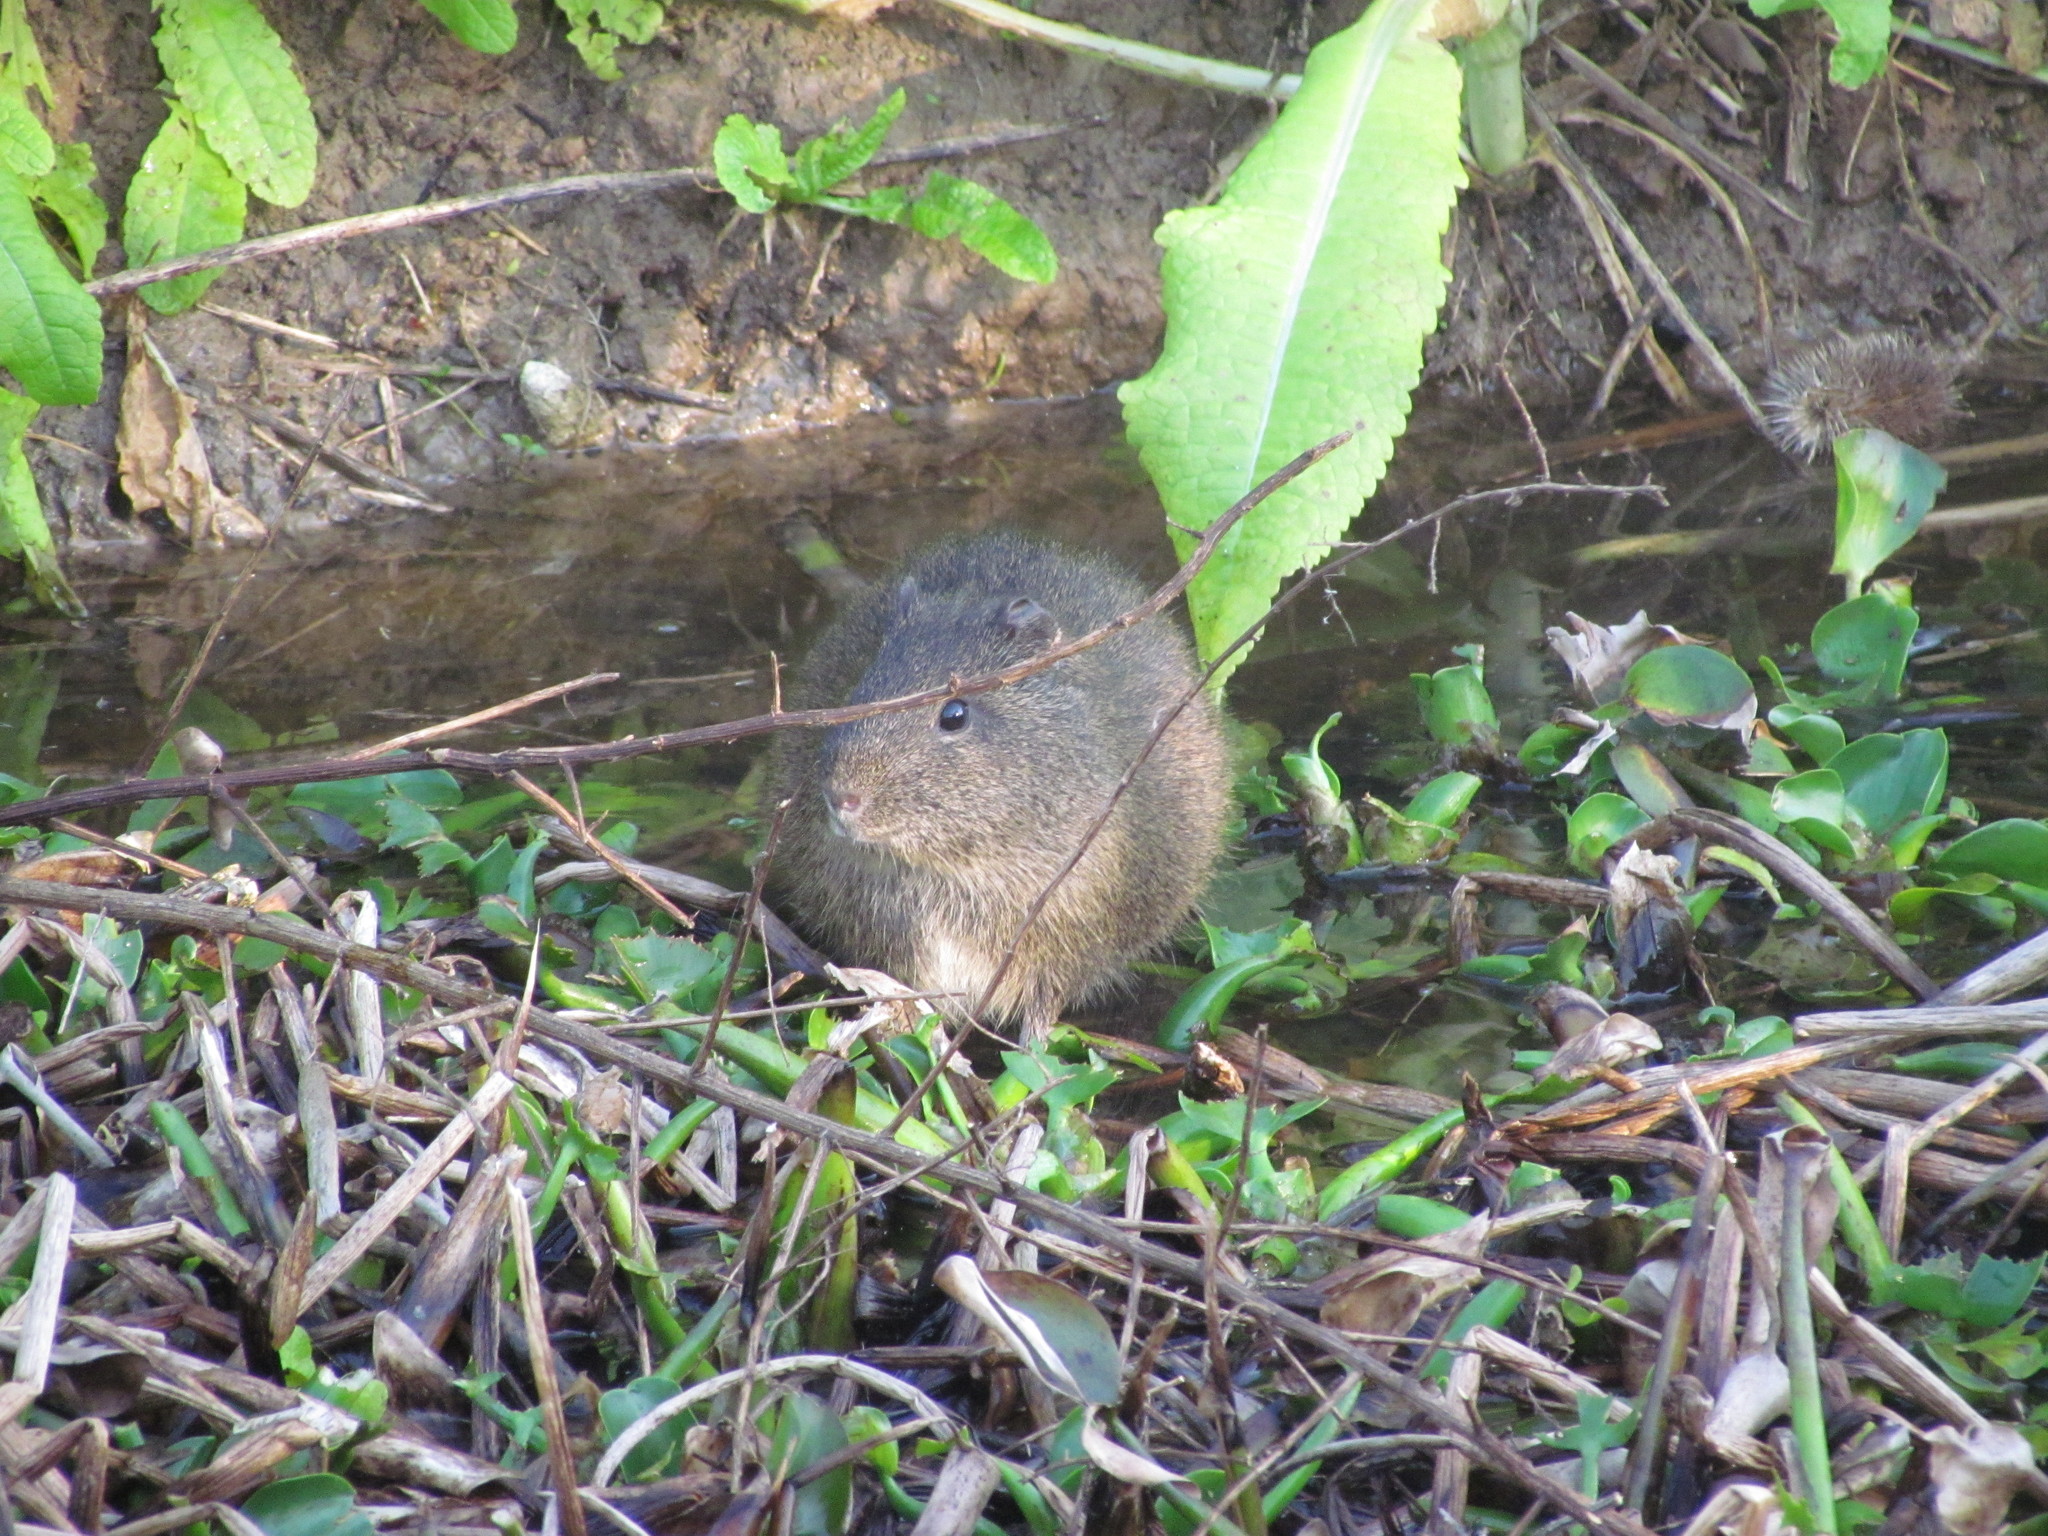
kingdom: Animalia
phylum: Chordata
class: Mammalia
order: Rodentia
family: Caviidae
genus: Cavia
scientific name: Cavia aperea
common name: Brazilian guinea pig
